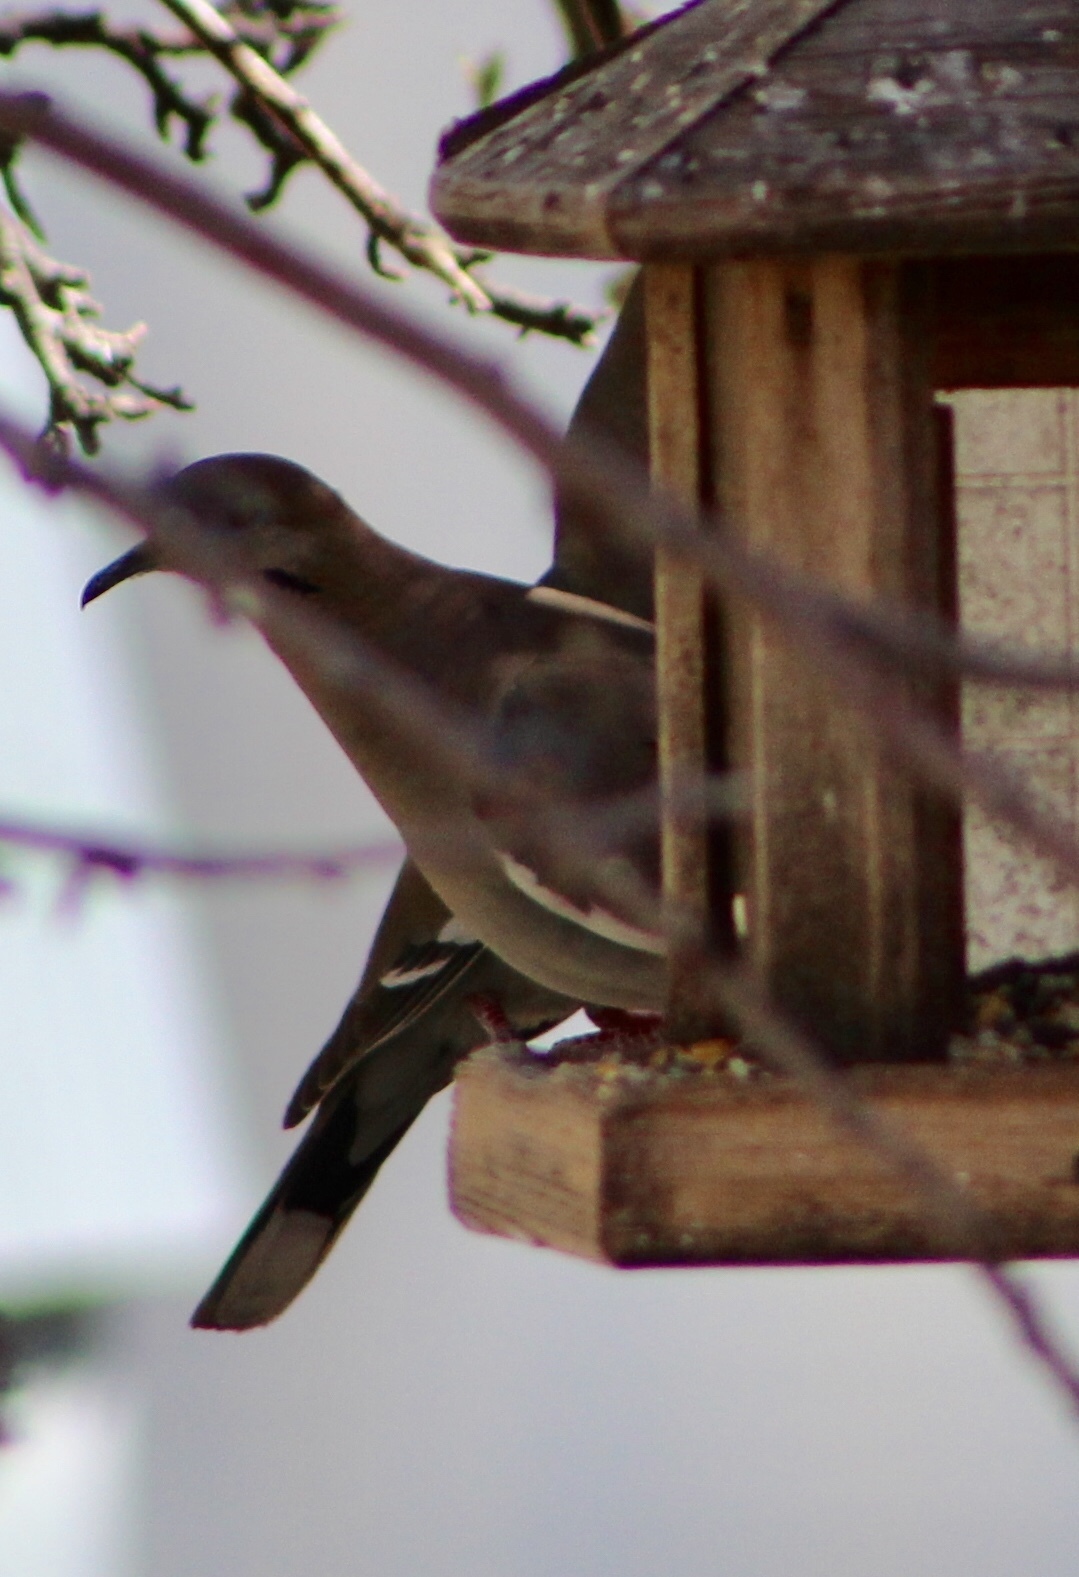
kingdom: Animalia
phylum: Chordata
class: Aves
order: Columbiformes
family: Columbidae
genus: Zenaida
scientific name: Zenaida asiatica
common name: White-winged dove
